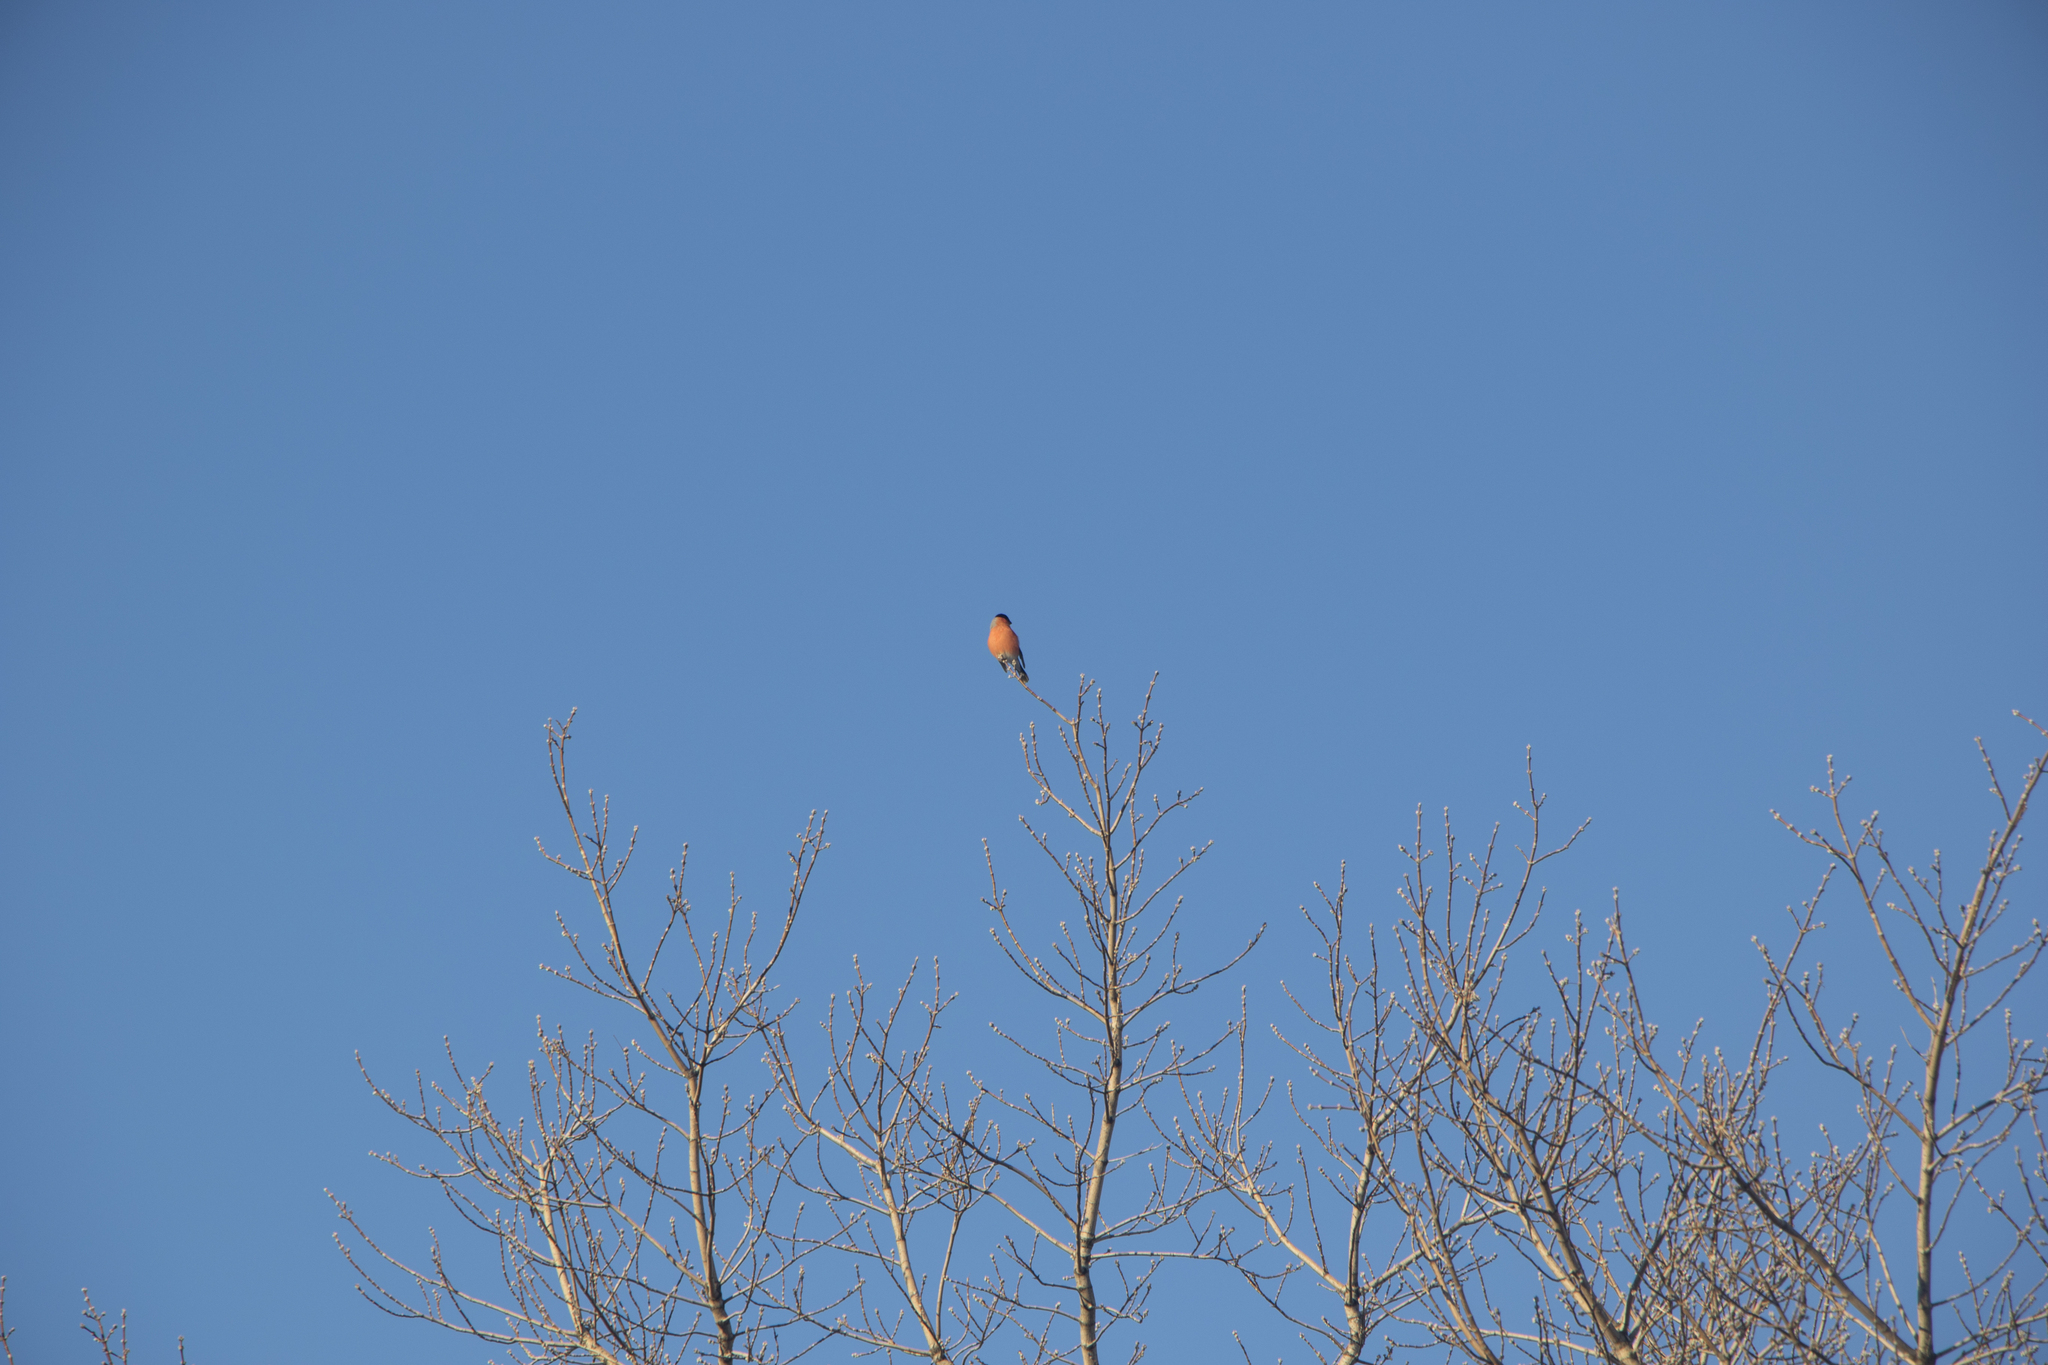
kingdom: Animalia
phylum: Chordata
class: Aves
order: Passeriformes
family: Fringillidae
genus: Pyrrhula
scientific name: Pyrrhula pyrrhula
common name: Eurasian bullfinch
